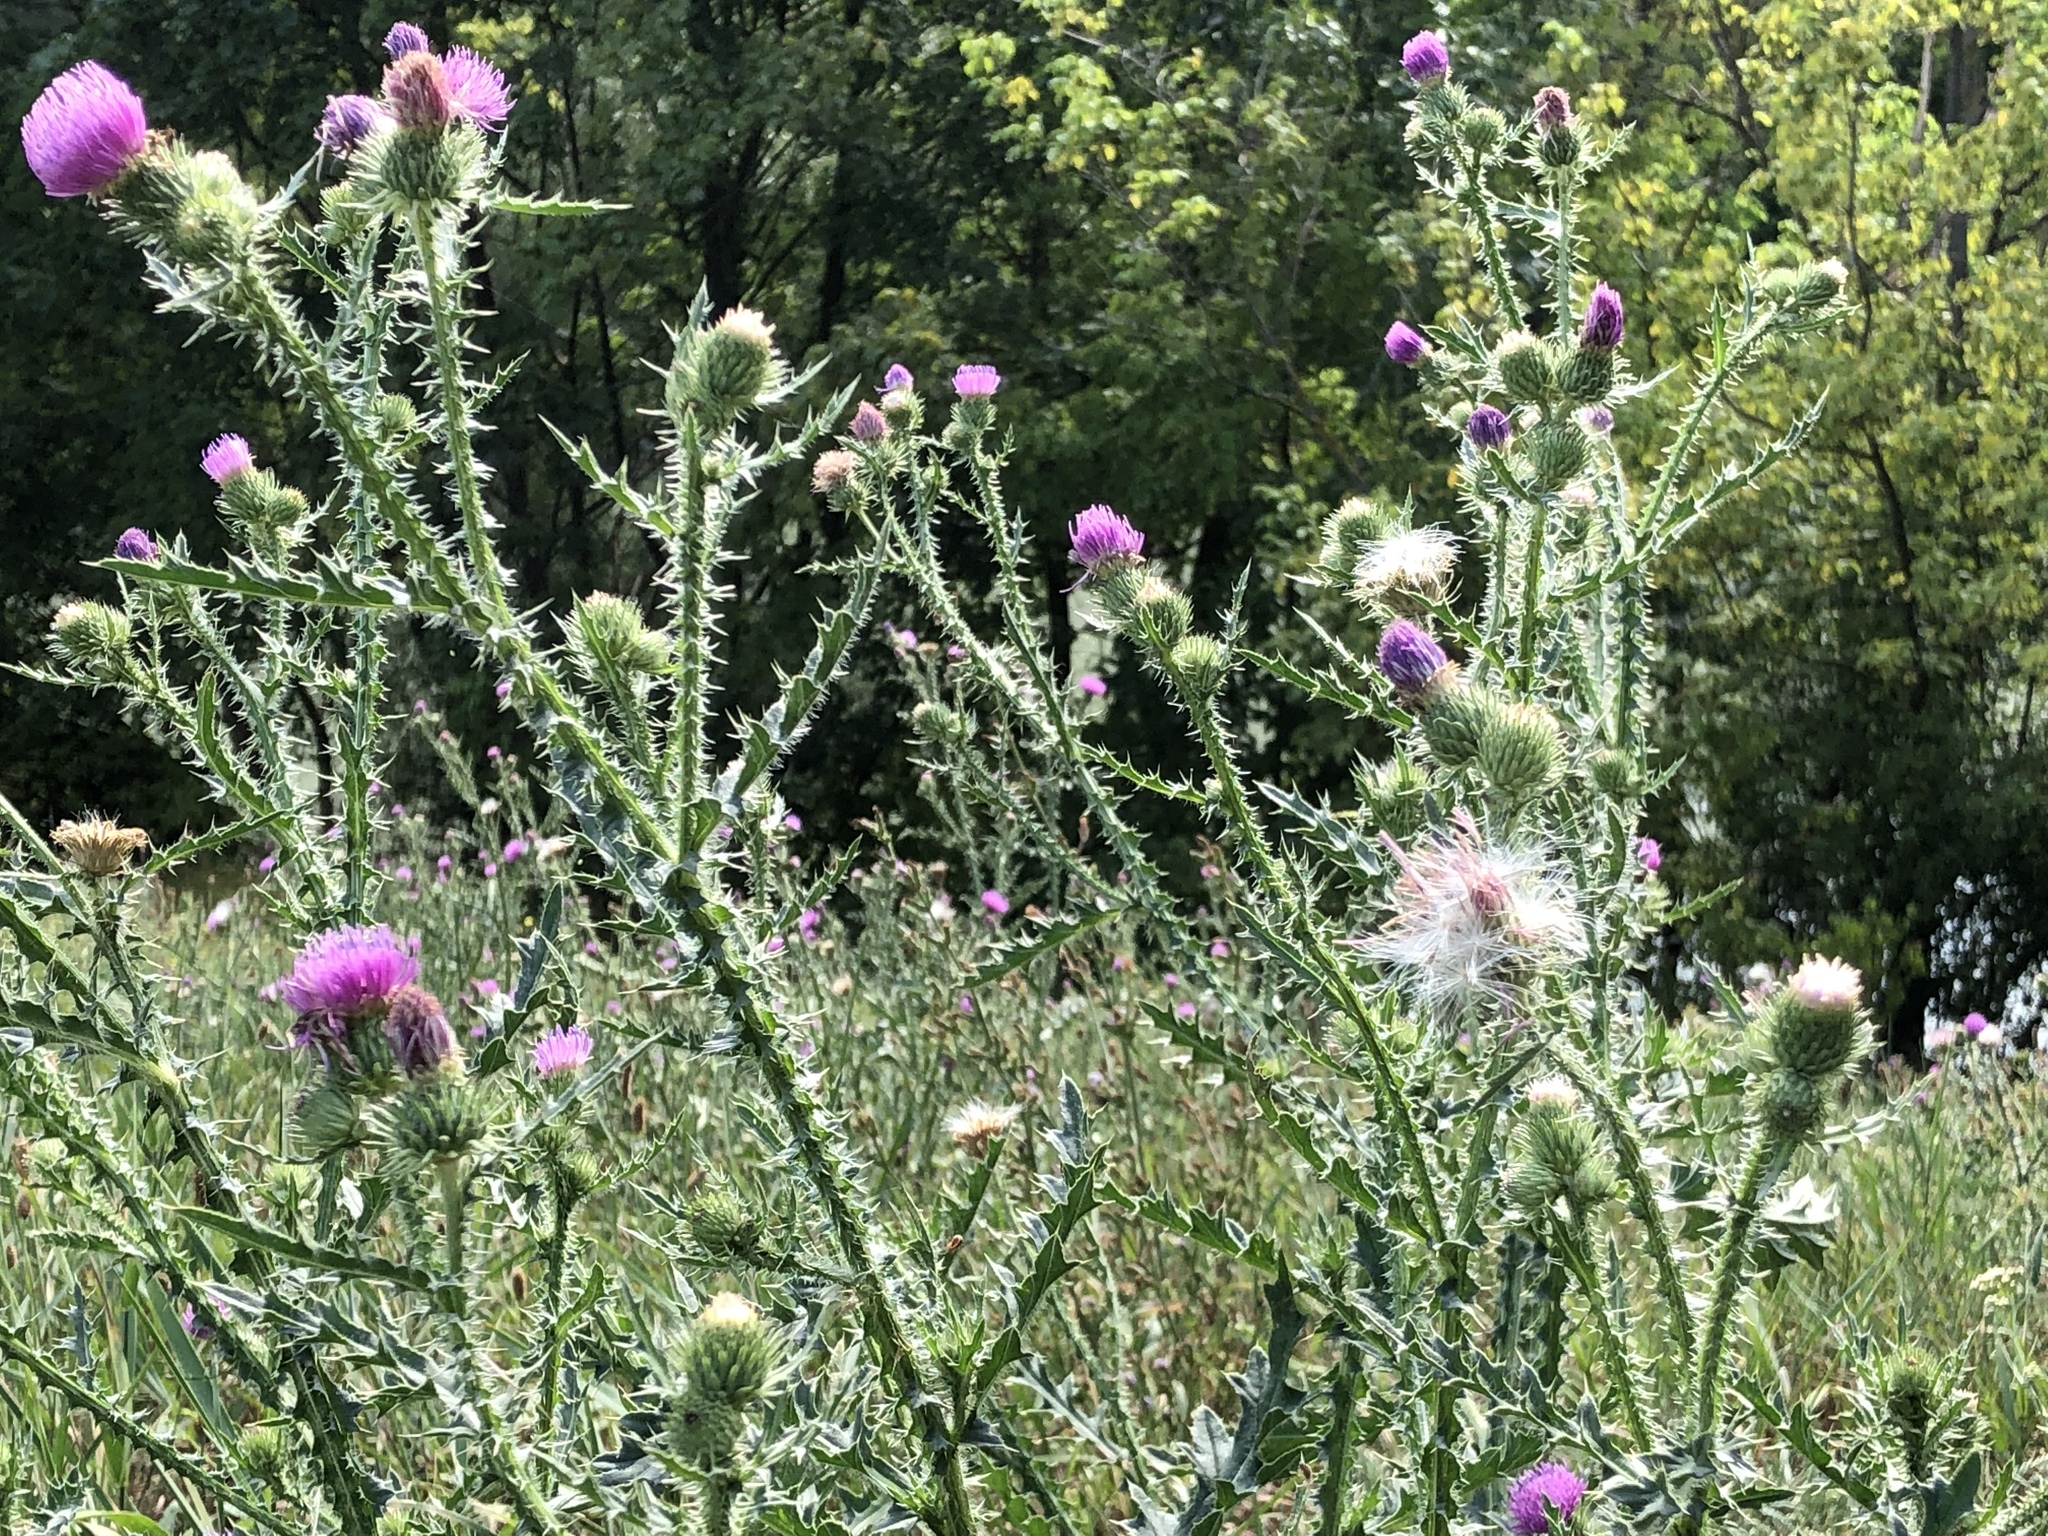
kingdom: Plantae
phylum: Tracheophyta
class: Magnoliopsida
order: Asterales
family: Asteraceae
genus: Carduus
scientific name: Carduus acanthoides
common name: Plumeless thistle
